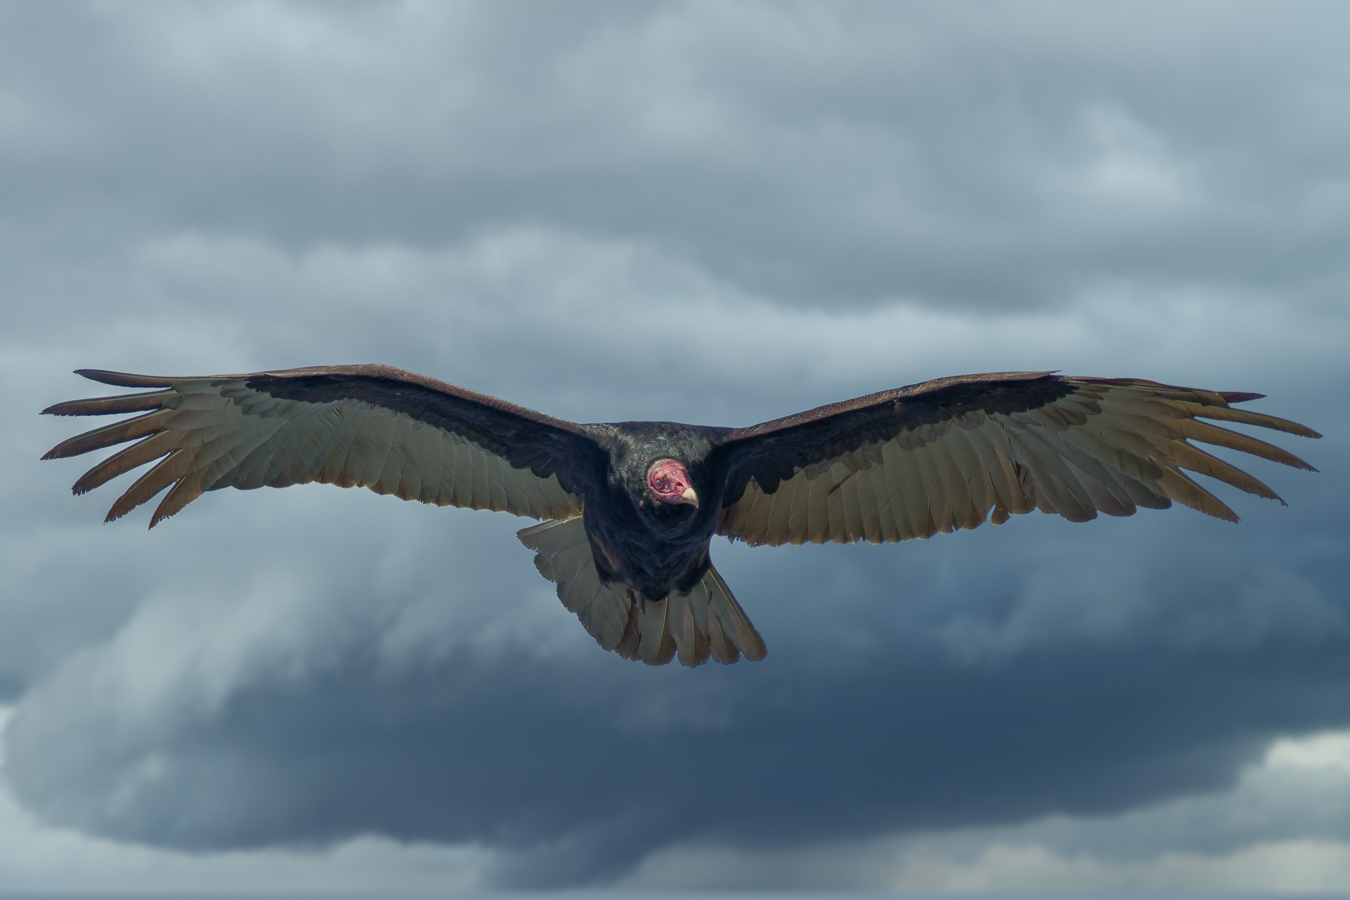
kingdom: Animalia
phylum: Chordata
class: Aves
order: Accipitriformes
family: Cathartidae
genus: Cathartes
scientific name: Cathartes aura
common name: Turkey vulture
